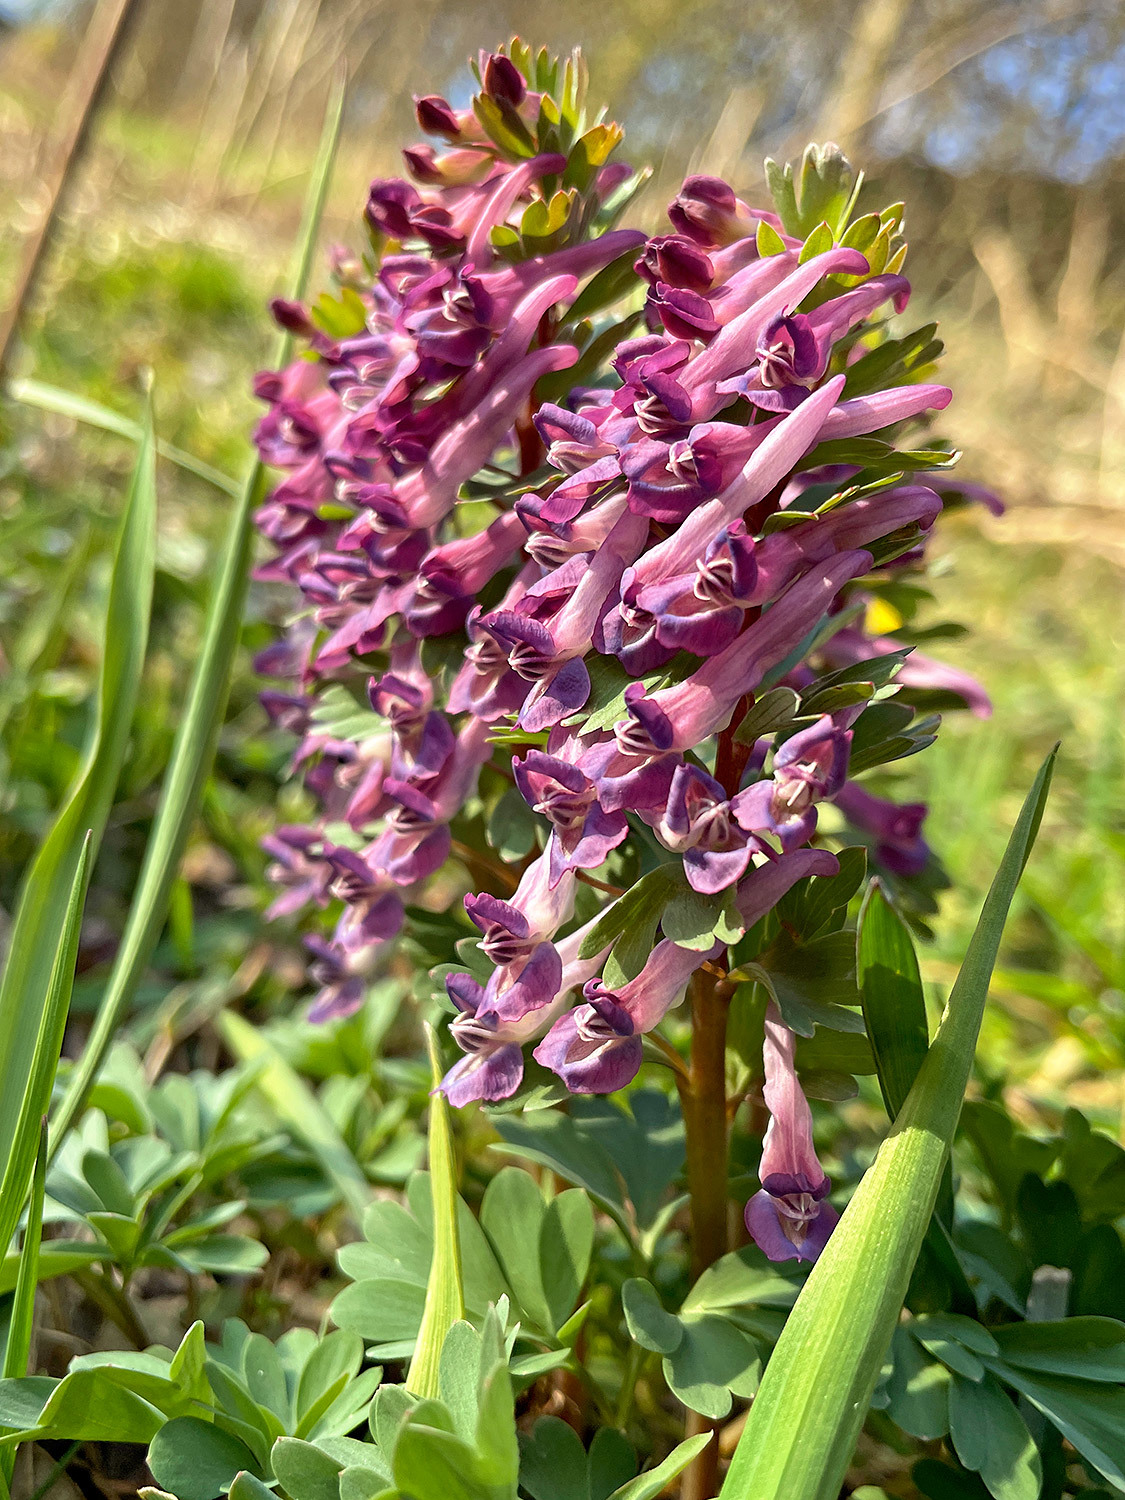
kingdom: Plantae
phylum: Tracheophyta
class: Magnoliopsida
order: Ranunculales
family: Papaveraceae
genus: Corydalis
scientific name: Corydalis solida
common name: Bird-in-a-bush
